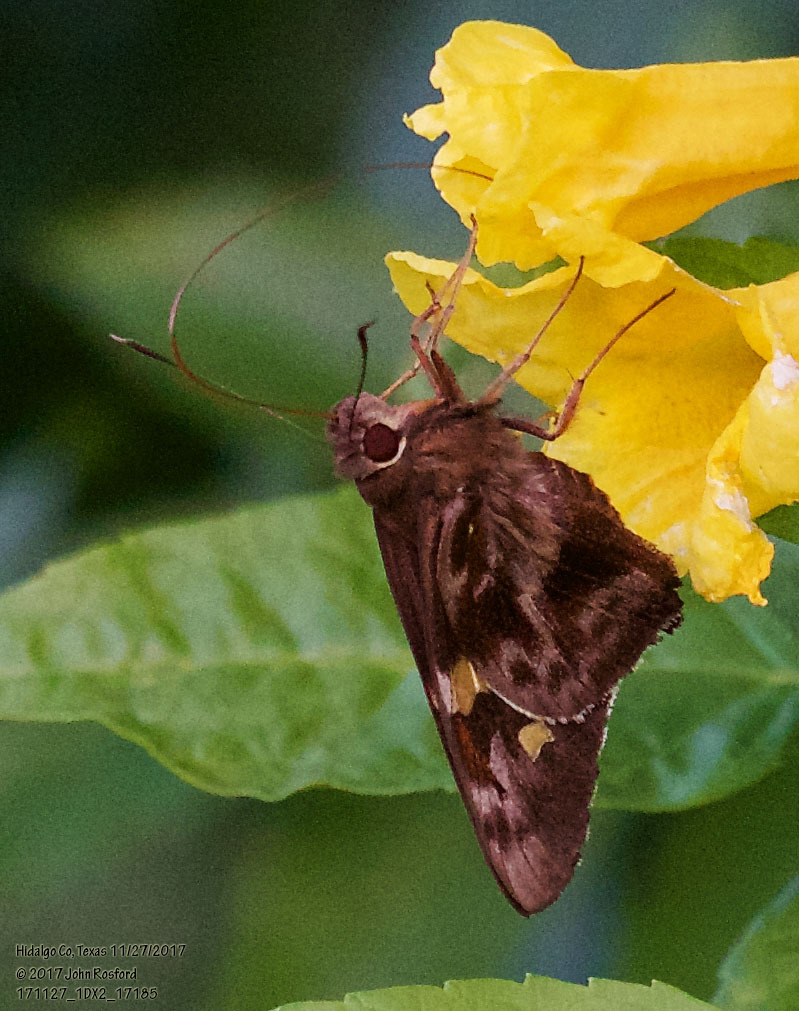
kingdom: Animalia
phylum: Arthropoda
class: Insecta
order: Lepidoptera
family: Hesperiidae
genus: Perichares
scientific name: Perichares philetes
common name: Green-backed ruby-eye
